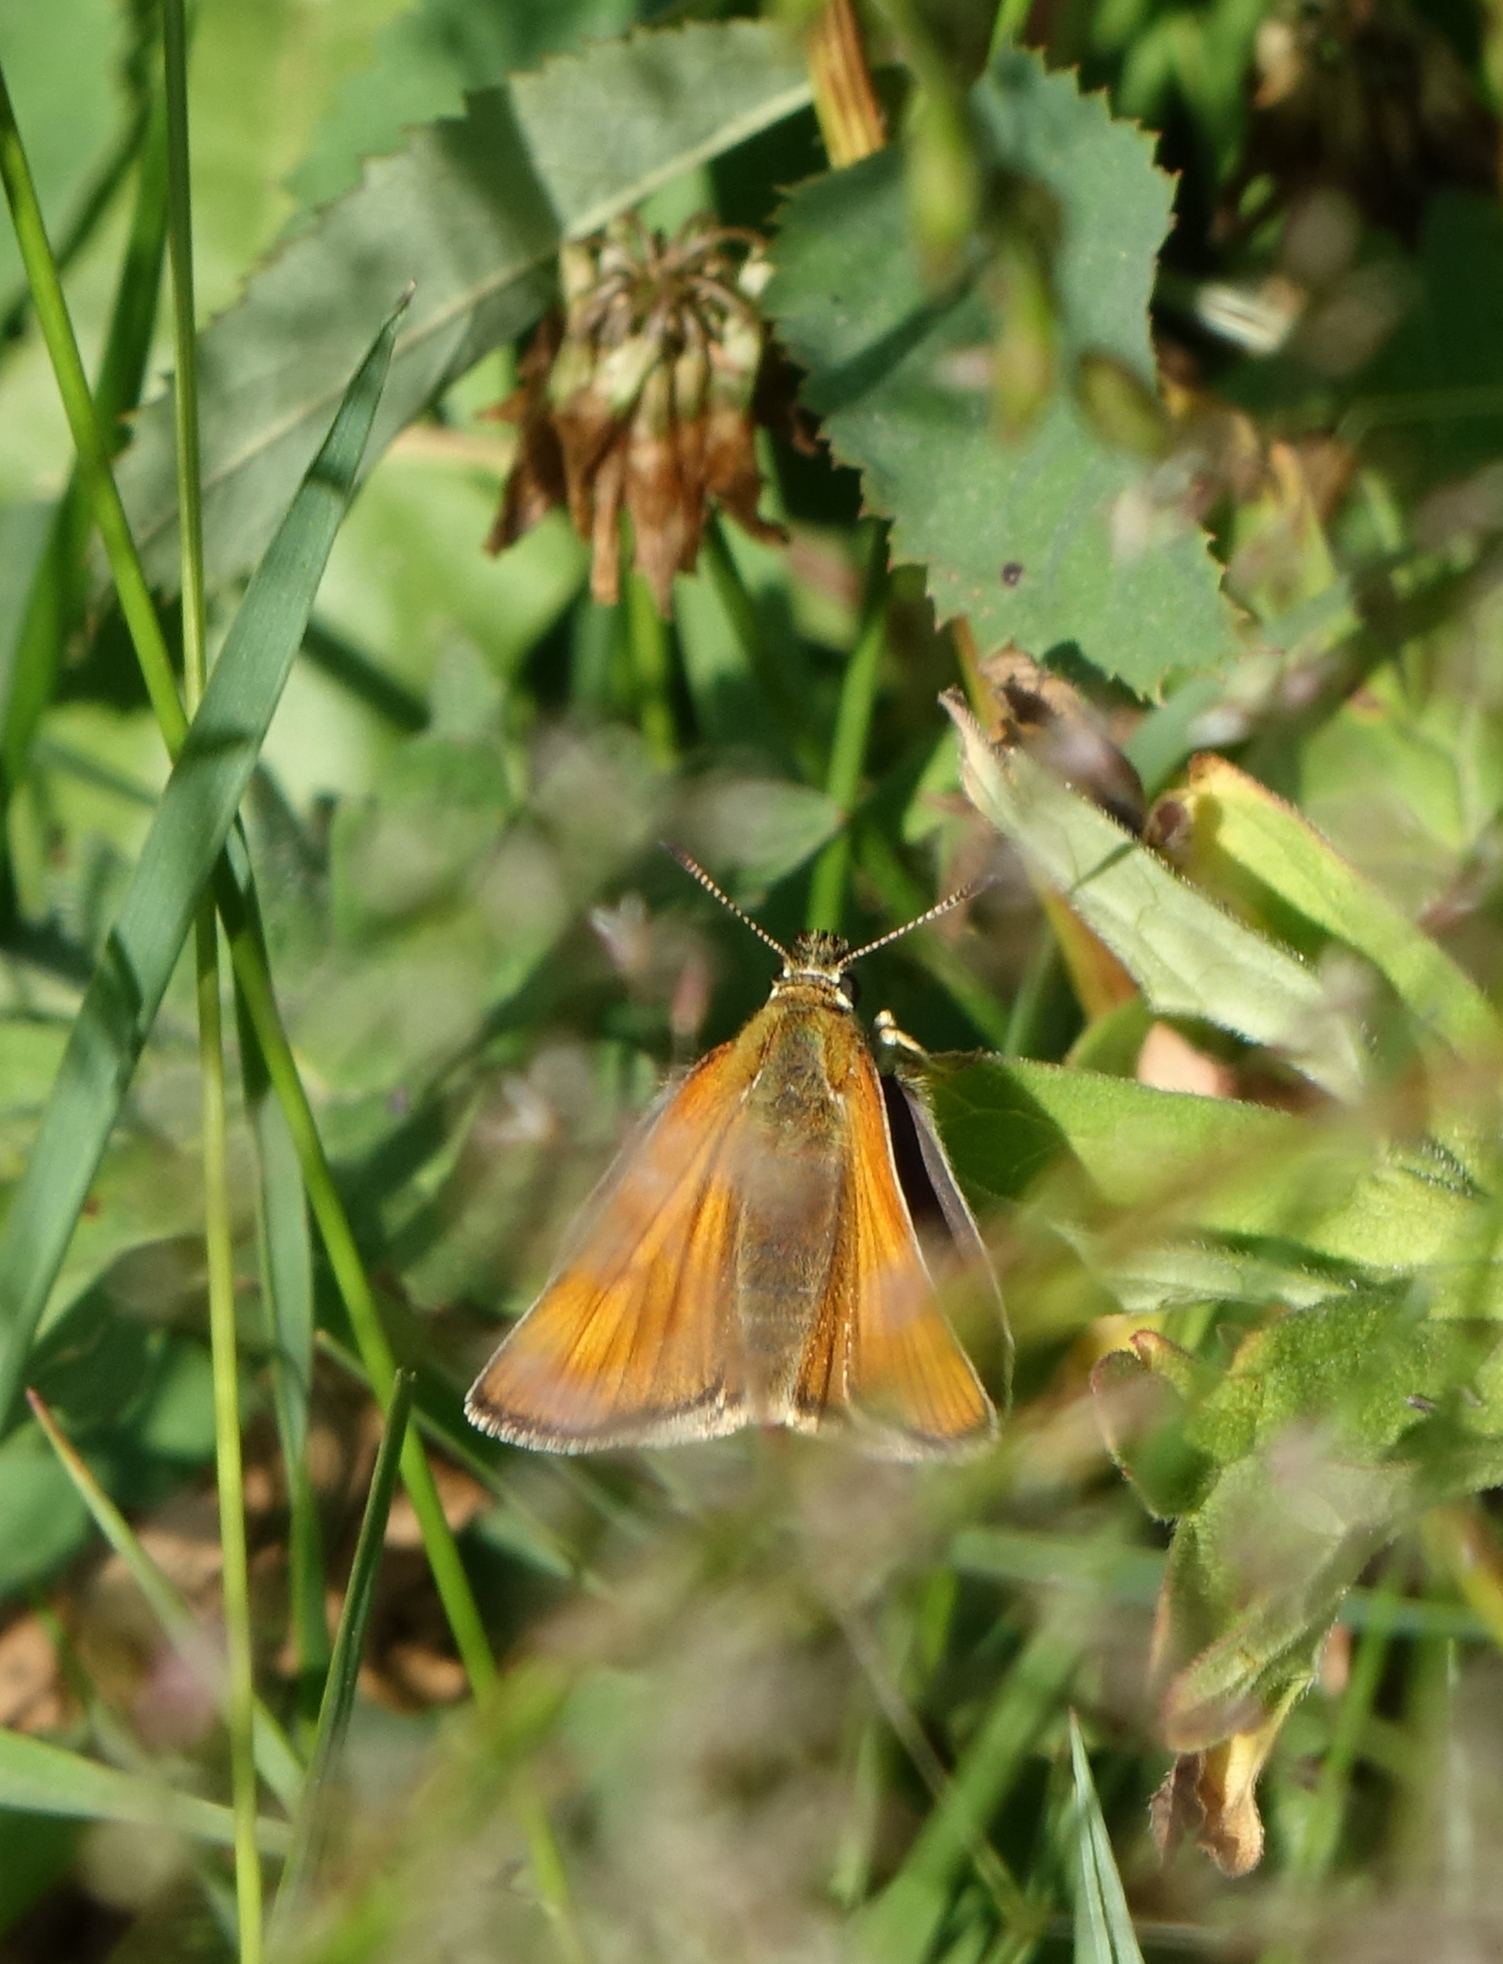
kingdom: Animalia
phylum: Arthropoda
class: Insecta
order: Lepidoptera
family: Hesperiidae
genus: Thymelicus
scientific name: Thymelicus lineola
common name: Essex skipper
